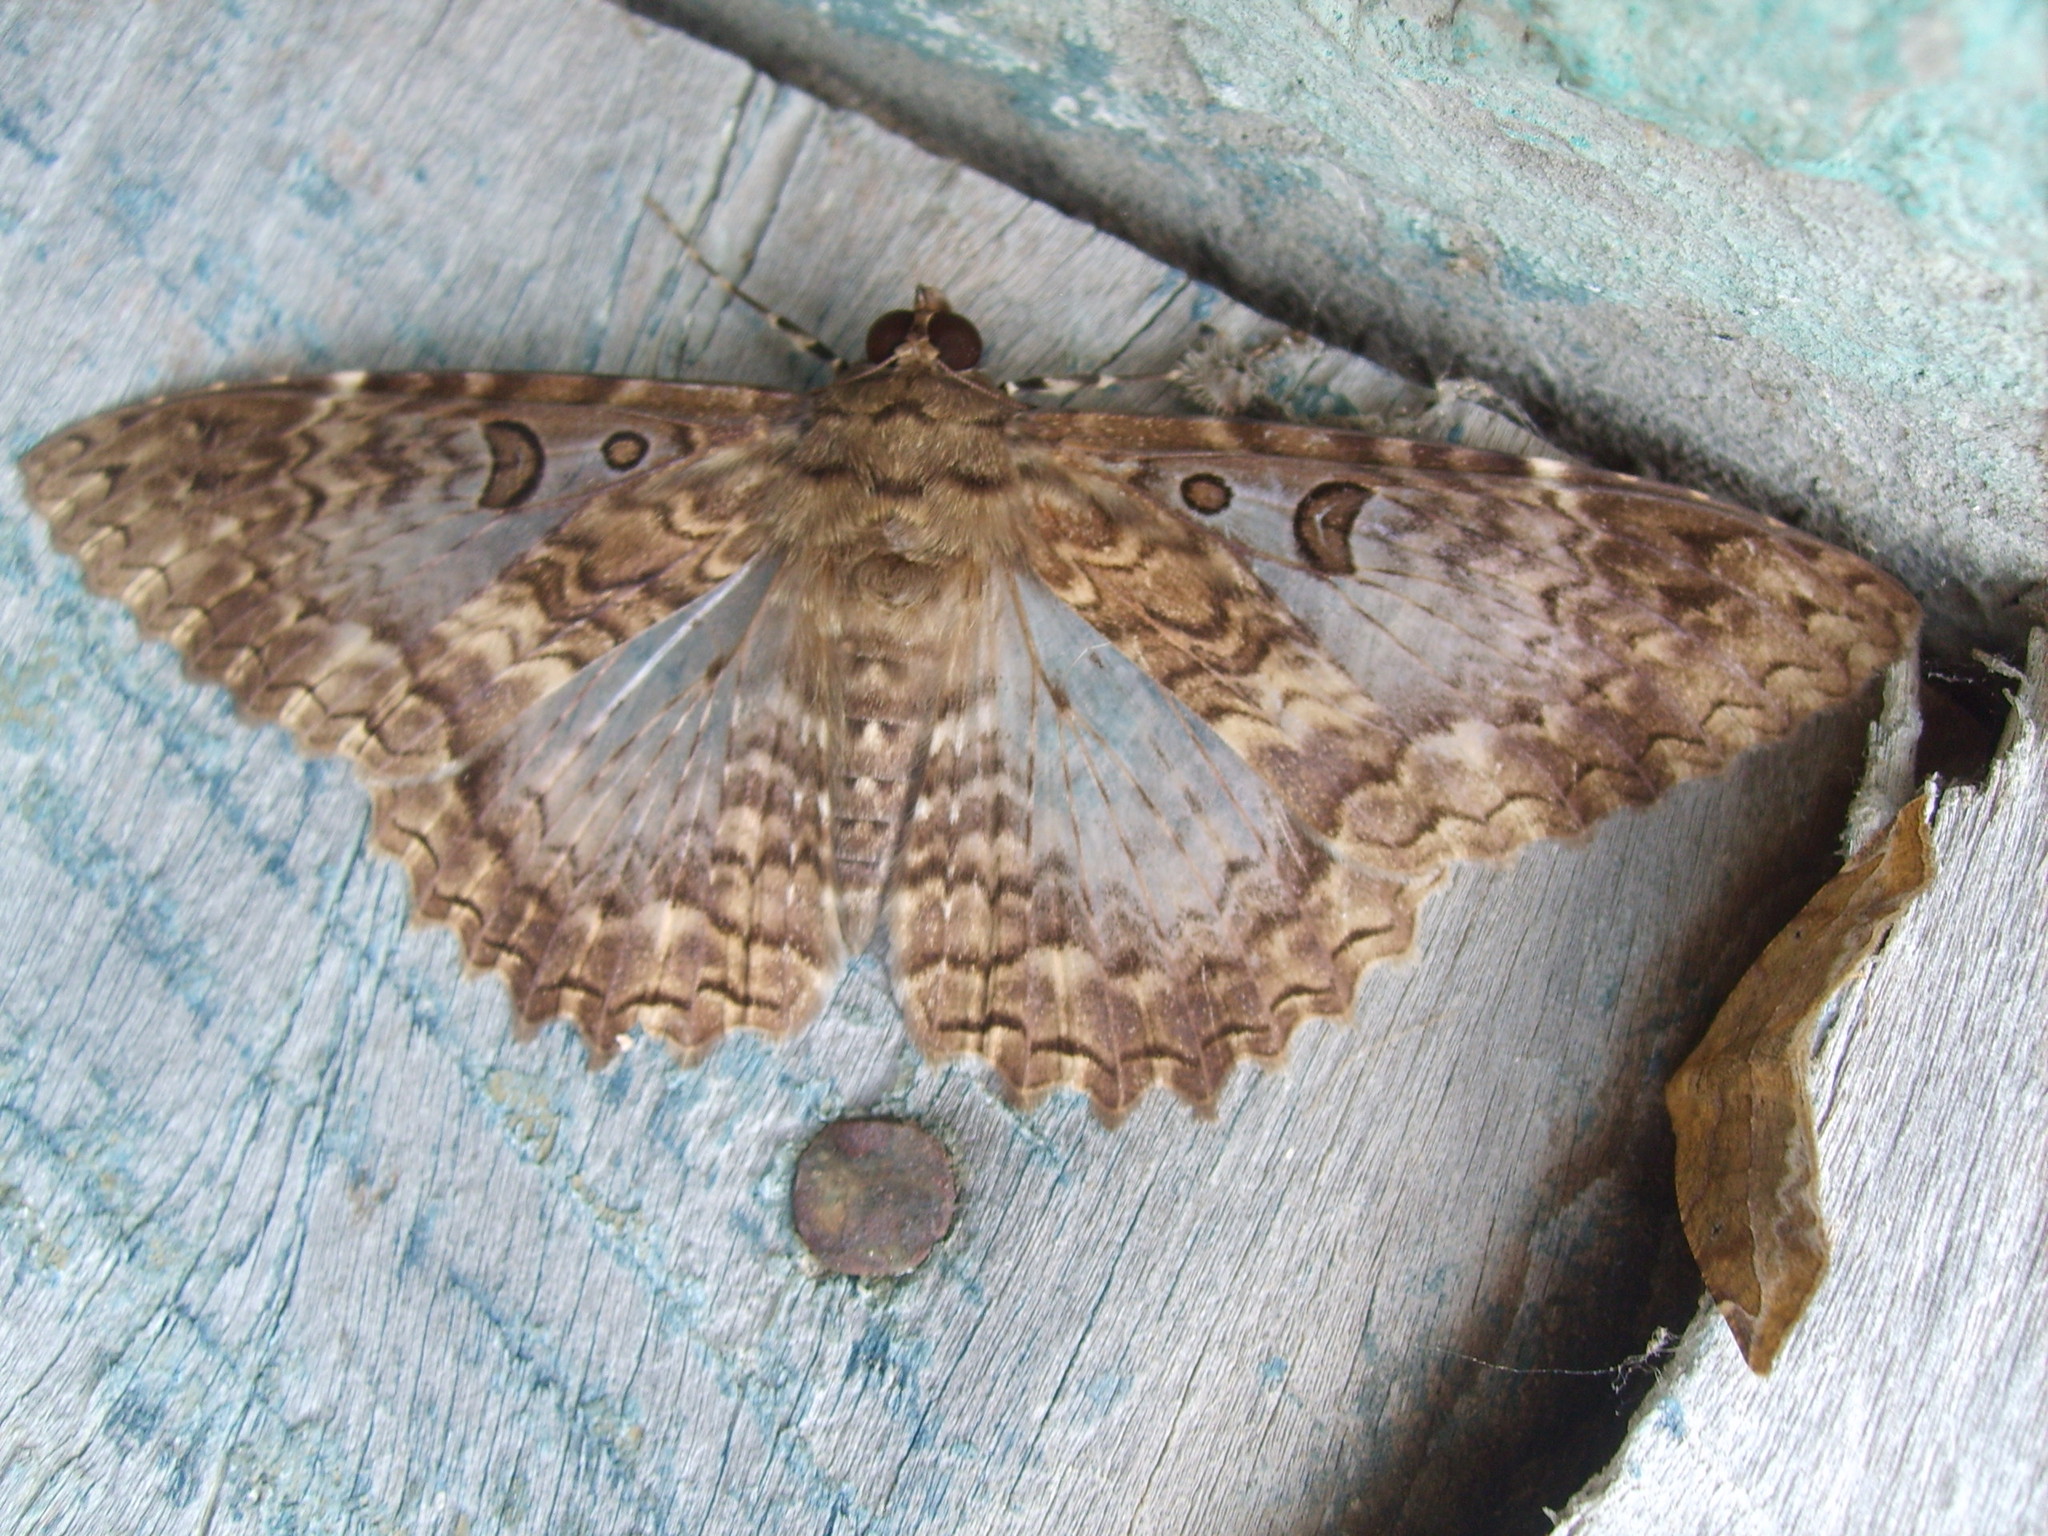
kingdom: Animalia
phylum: Arthropoda
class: Insecta
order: Lepidoptera
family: Erebidae
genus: Feigeria
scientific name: Feigeria scops
